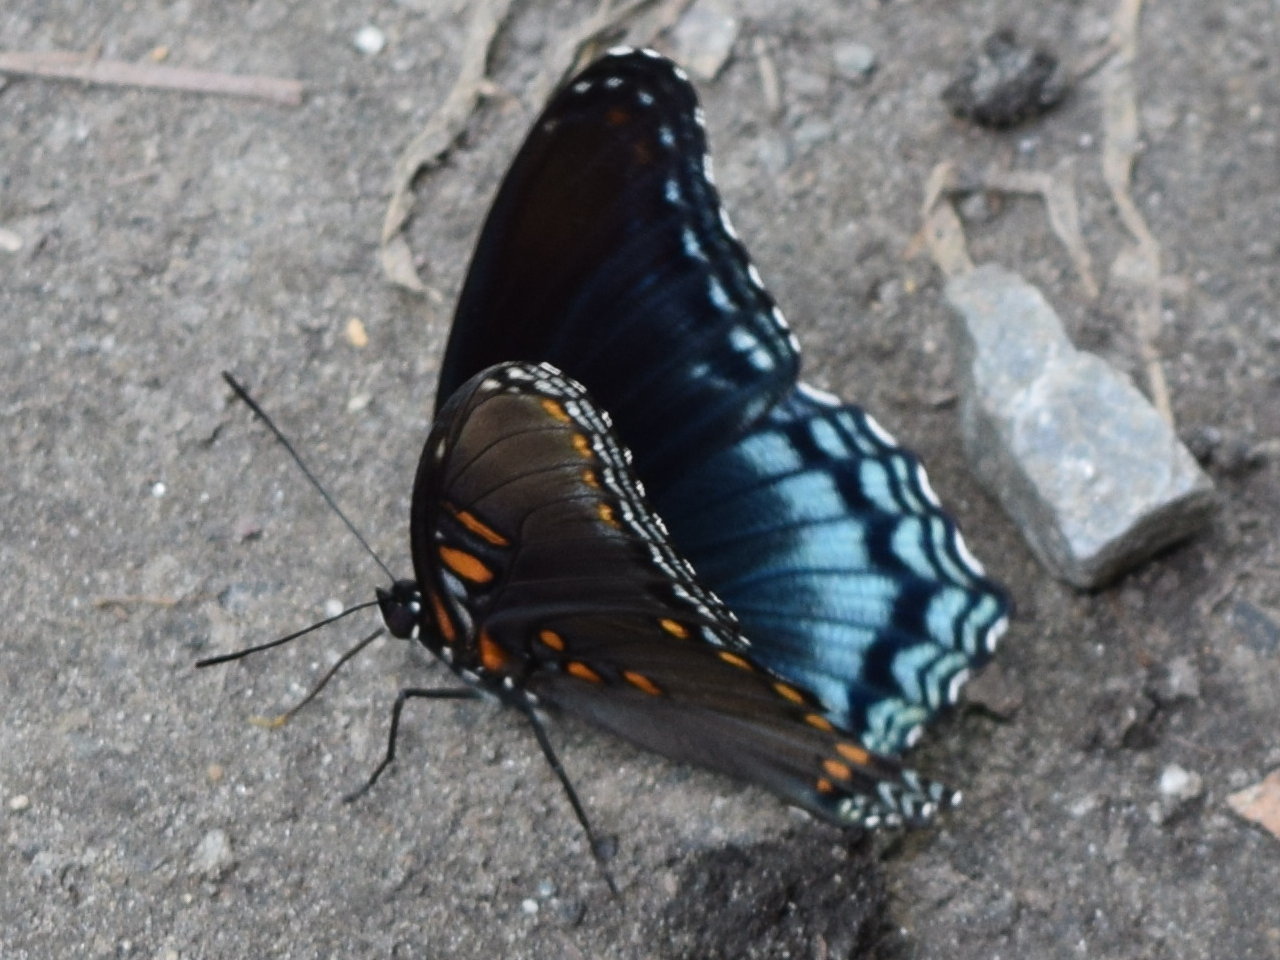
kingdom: Animalia
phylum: Arthropoda
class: Insecta
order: Lepidoptera
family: Nymphalidae
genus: Limenitis
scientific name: Limenitis astyanax
